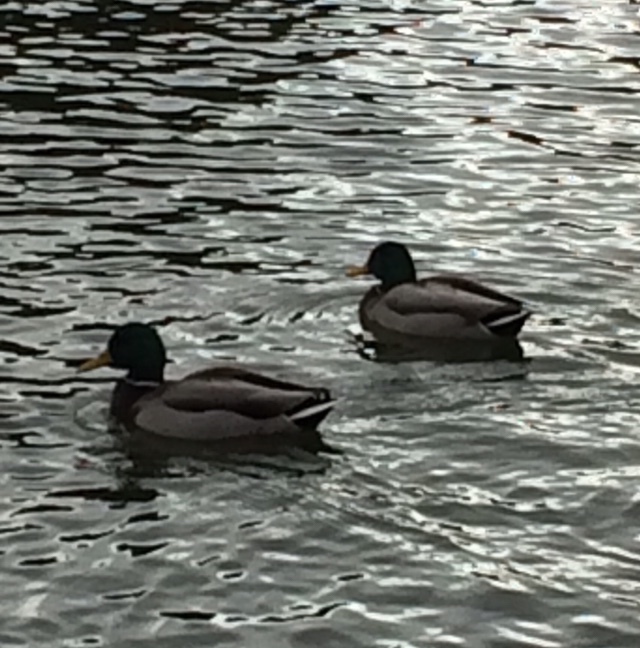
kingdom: Animalia
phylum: Chordata
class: Aves
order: Anseriformes
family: Anatidae
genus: Anas
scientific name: Anas platyrhynchos
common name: Mallard
